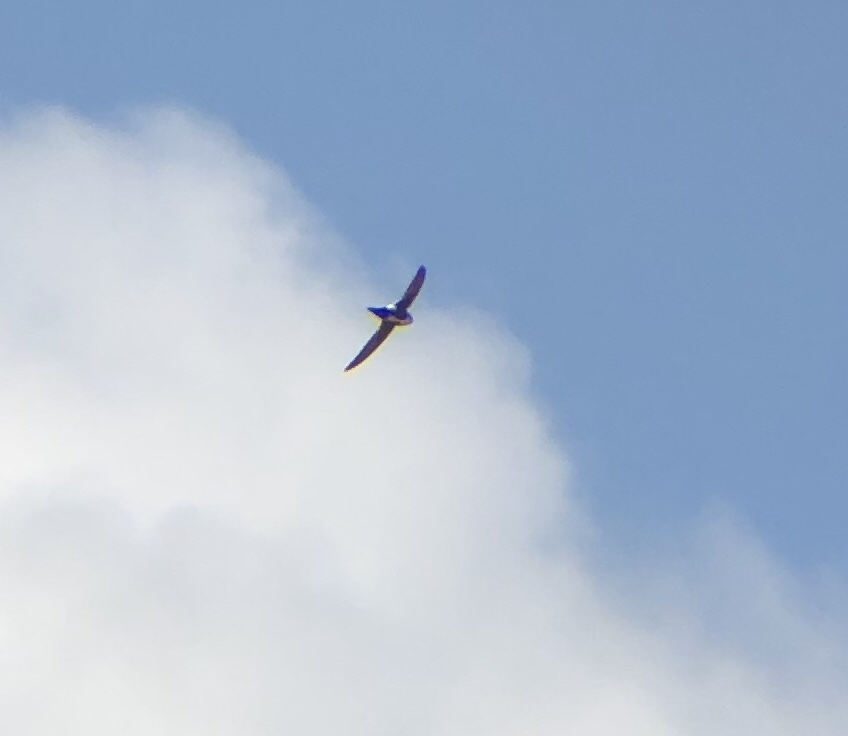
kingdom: Animalia
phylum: Chordata
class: Aves
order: Apodiformes
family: Apodidae
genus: Aeronautes
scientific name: Aeronautes saxatalis
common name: White-throated swift
